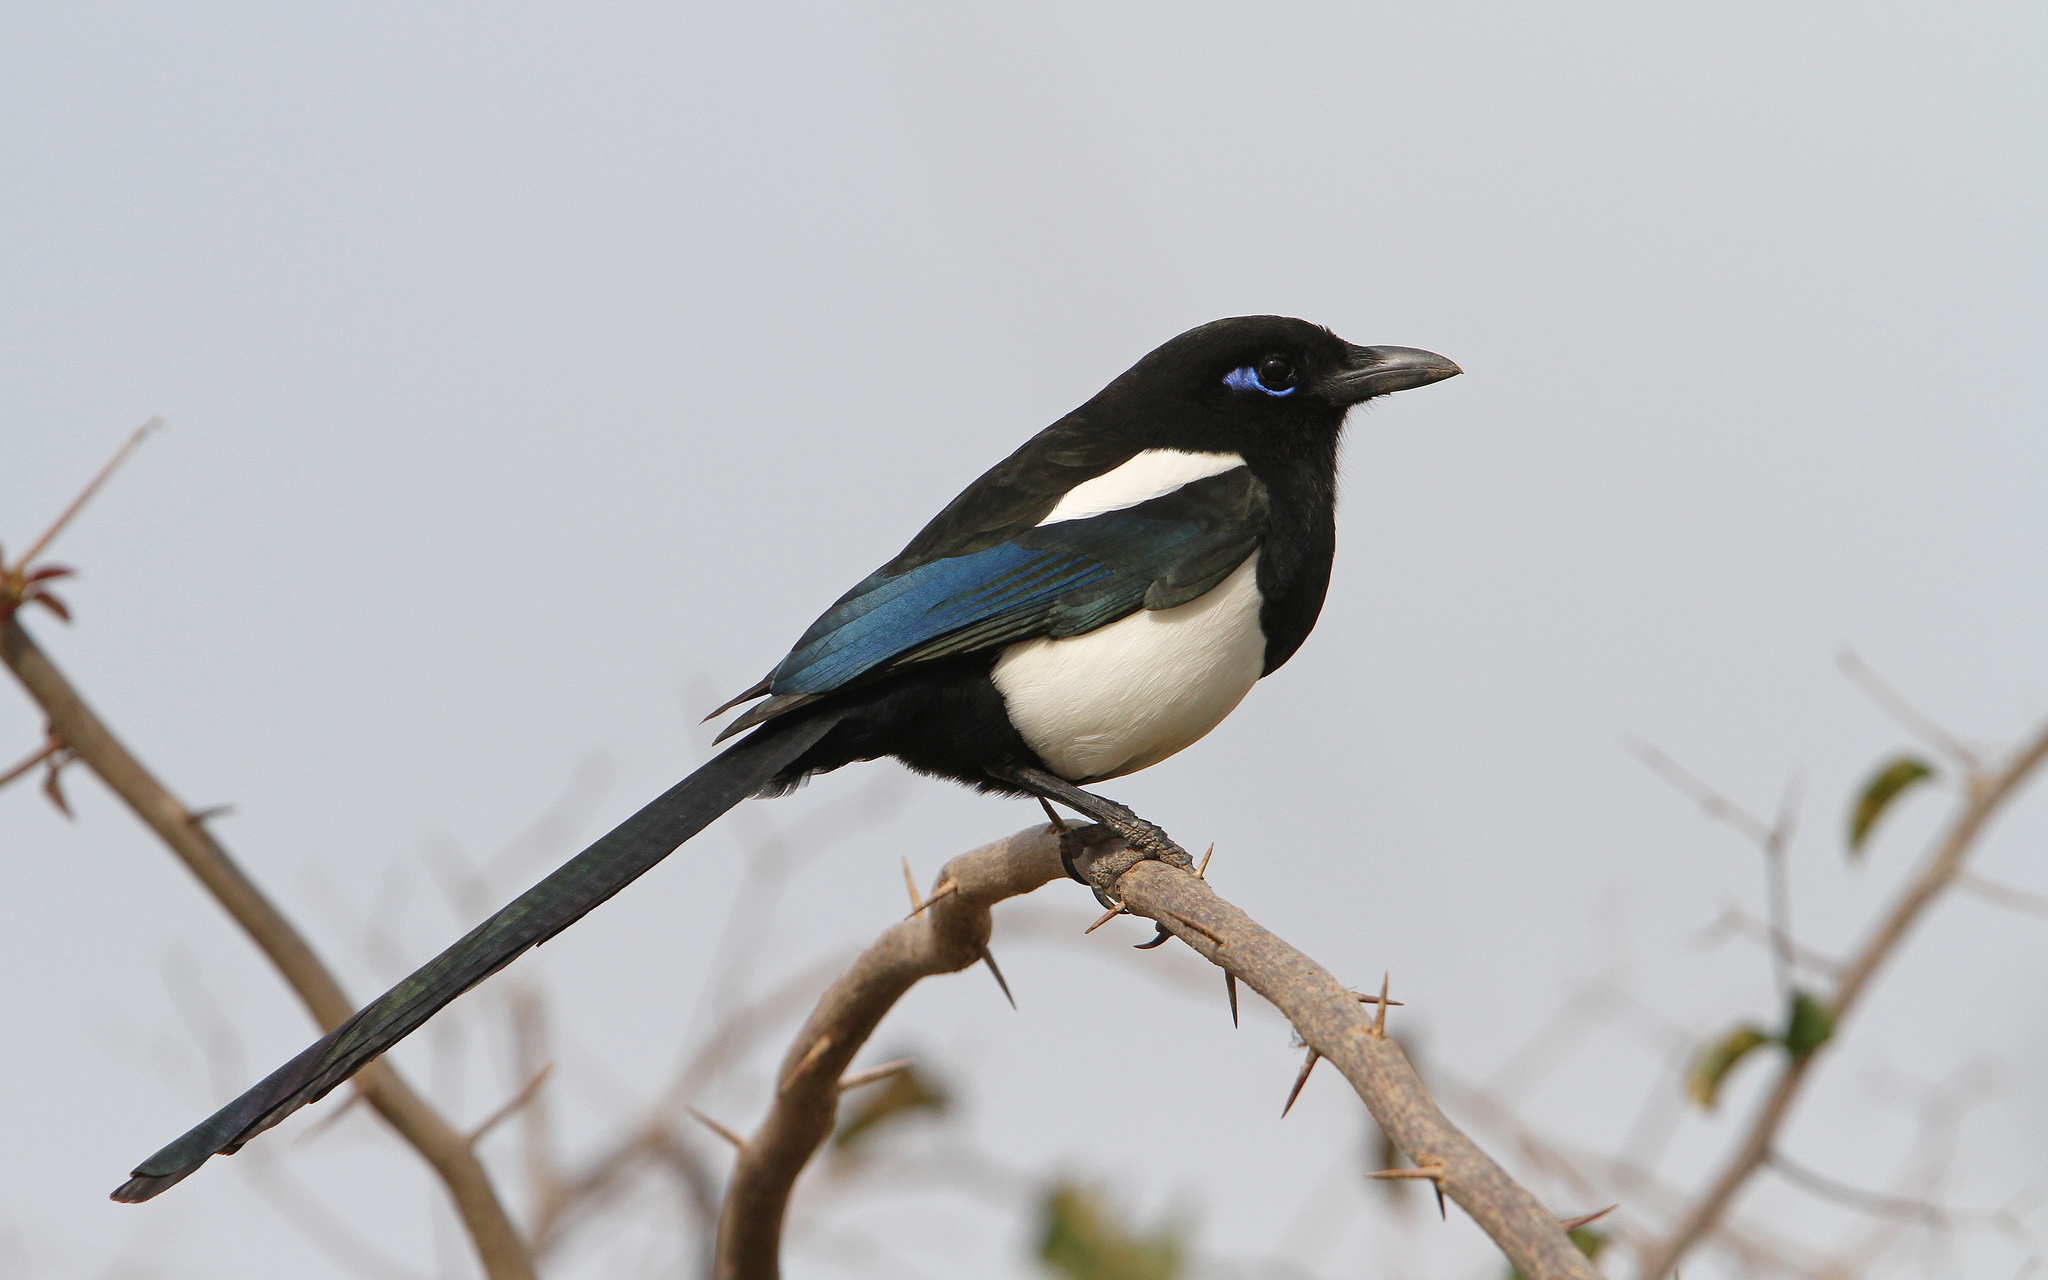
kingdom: Animalia
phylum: Chordata
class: Aves
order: Passeriformes
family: Corvidae
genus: Pica
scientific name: Pica mauritanica
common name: Maghreb magpie
